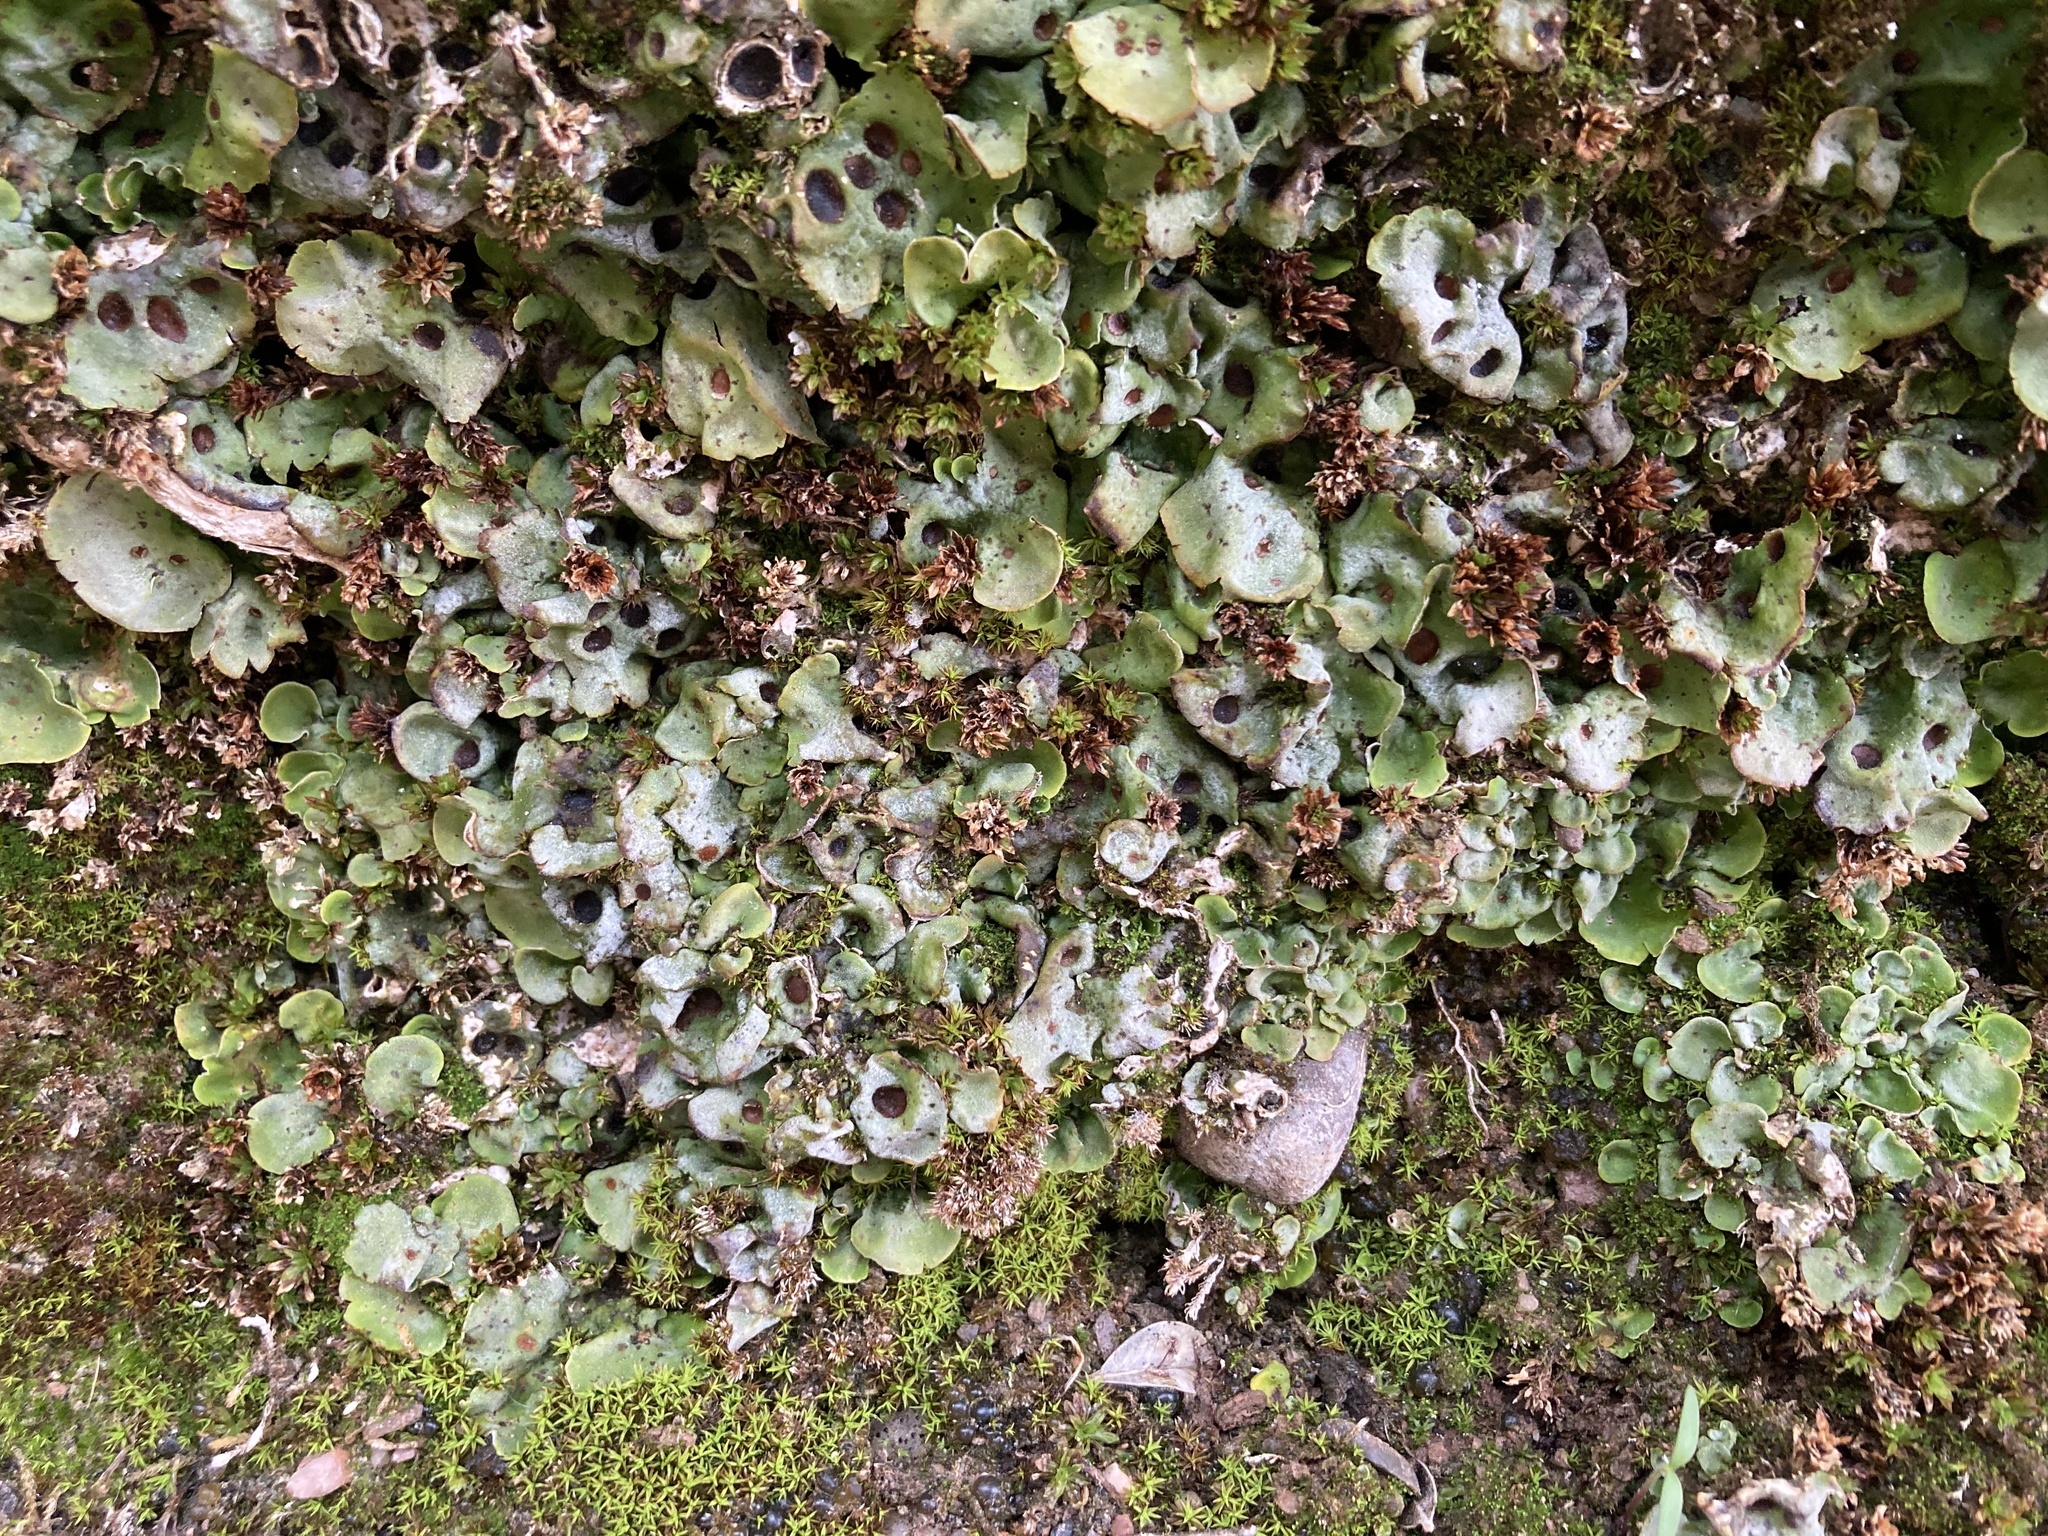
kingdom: Fungi
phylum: Ascomycota
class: Lecanoromycetes
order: Peltigerales
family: Peltigeraceae
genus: Solorina
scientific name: Solorina saccata
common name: Common chocolate chip lichen
